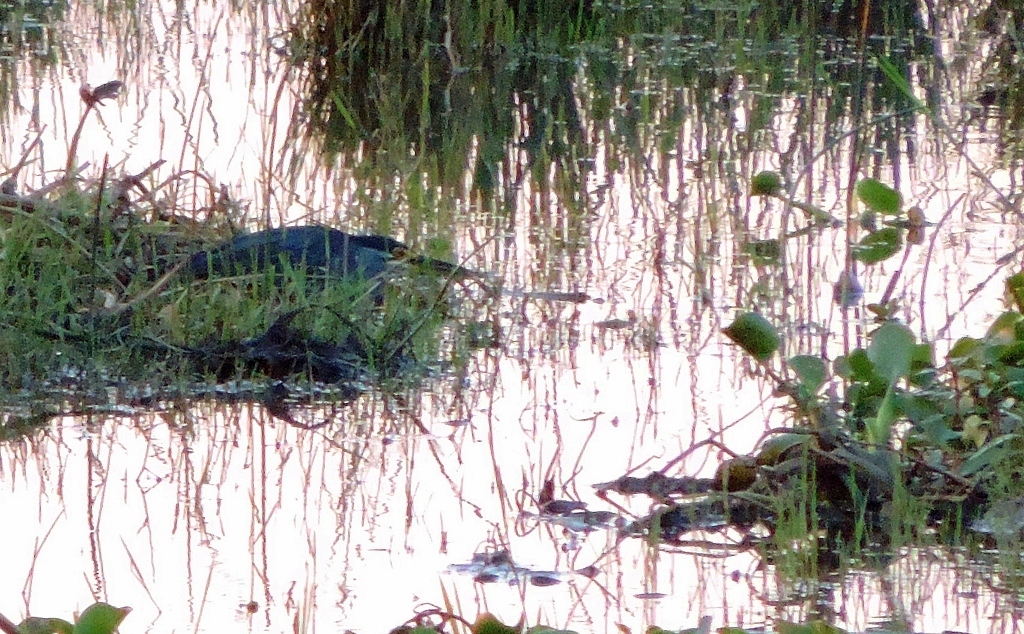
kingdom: Animalia
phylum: Chordata
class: Aves
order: Pelecaniformes
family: Ardeidae
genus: Butorides
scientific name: Butorides striata
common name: Striated heron
